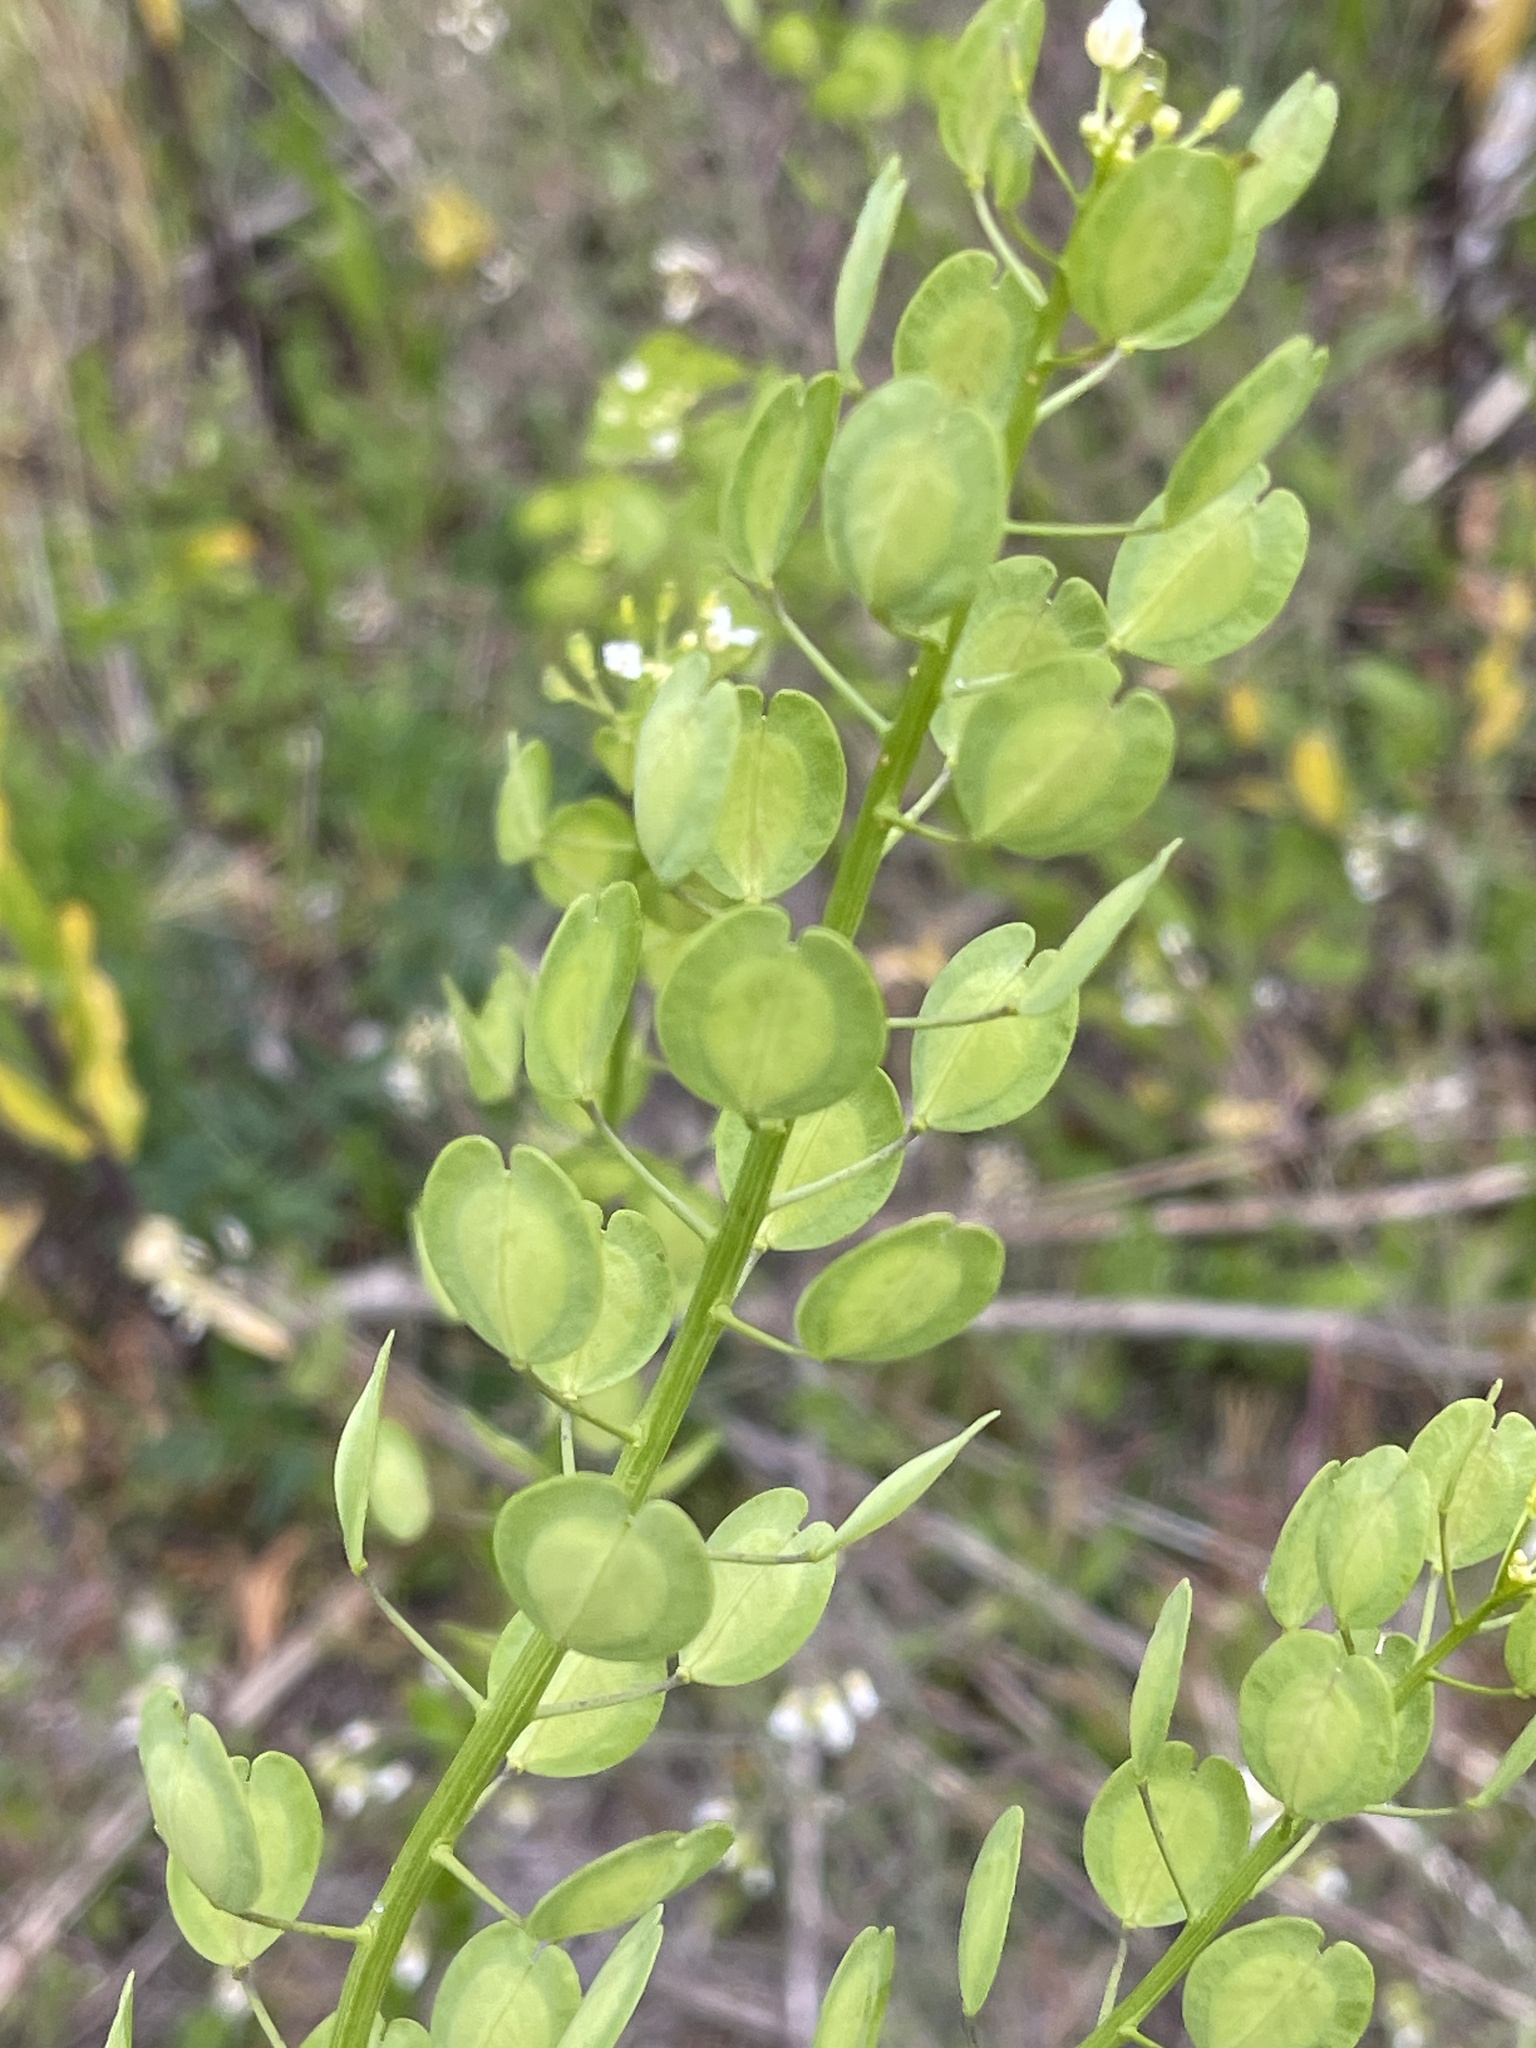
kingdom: Plantae
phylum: Tracheophyta
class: Magnoliopsida
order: Brassicales
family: Brassicaceae
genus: Thlaspi
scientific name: Thlaspi arvense
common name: Field pennycress
